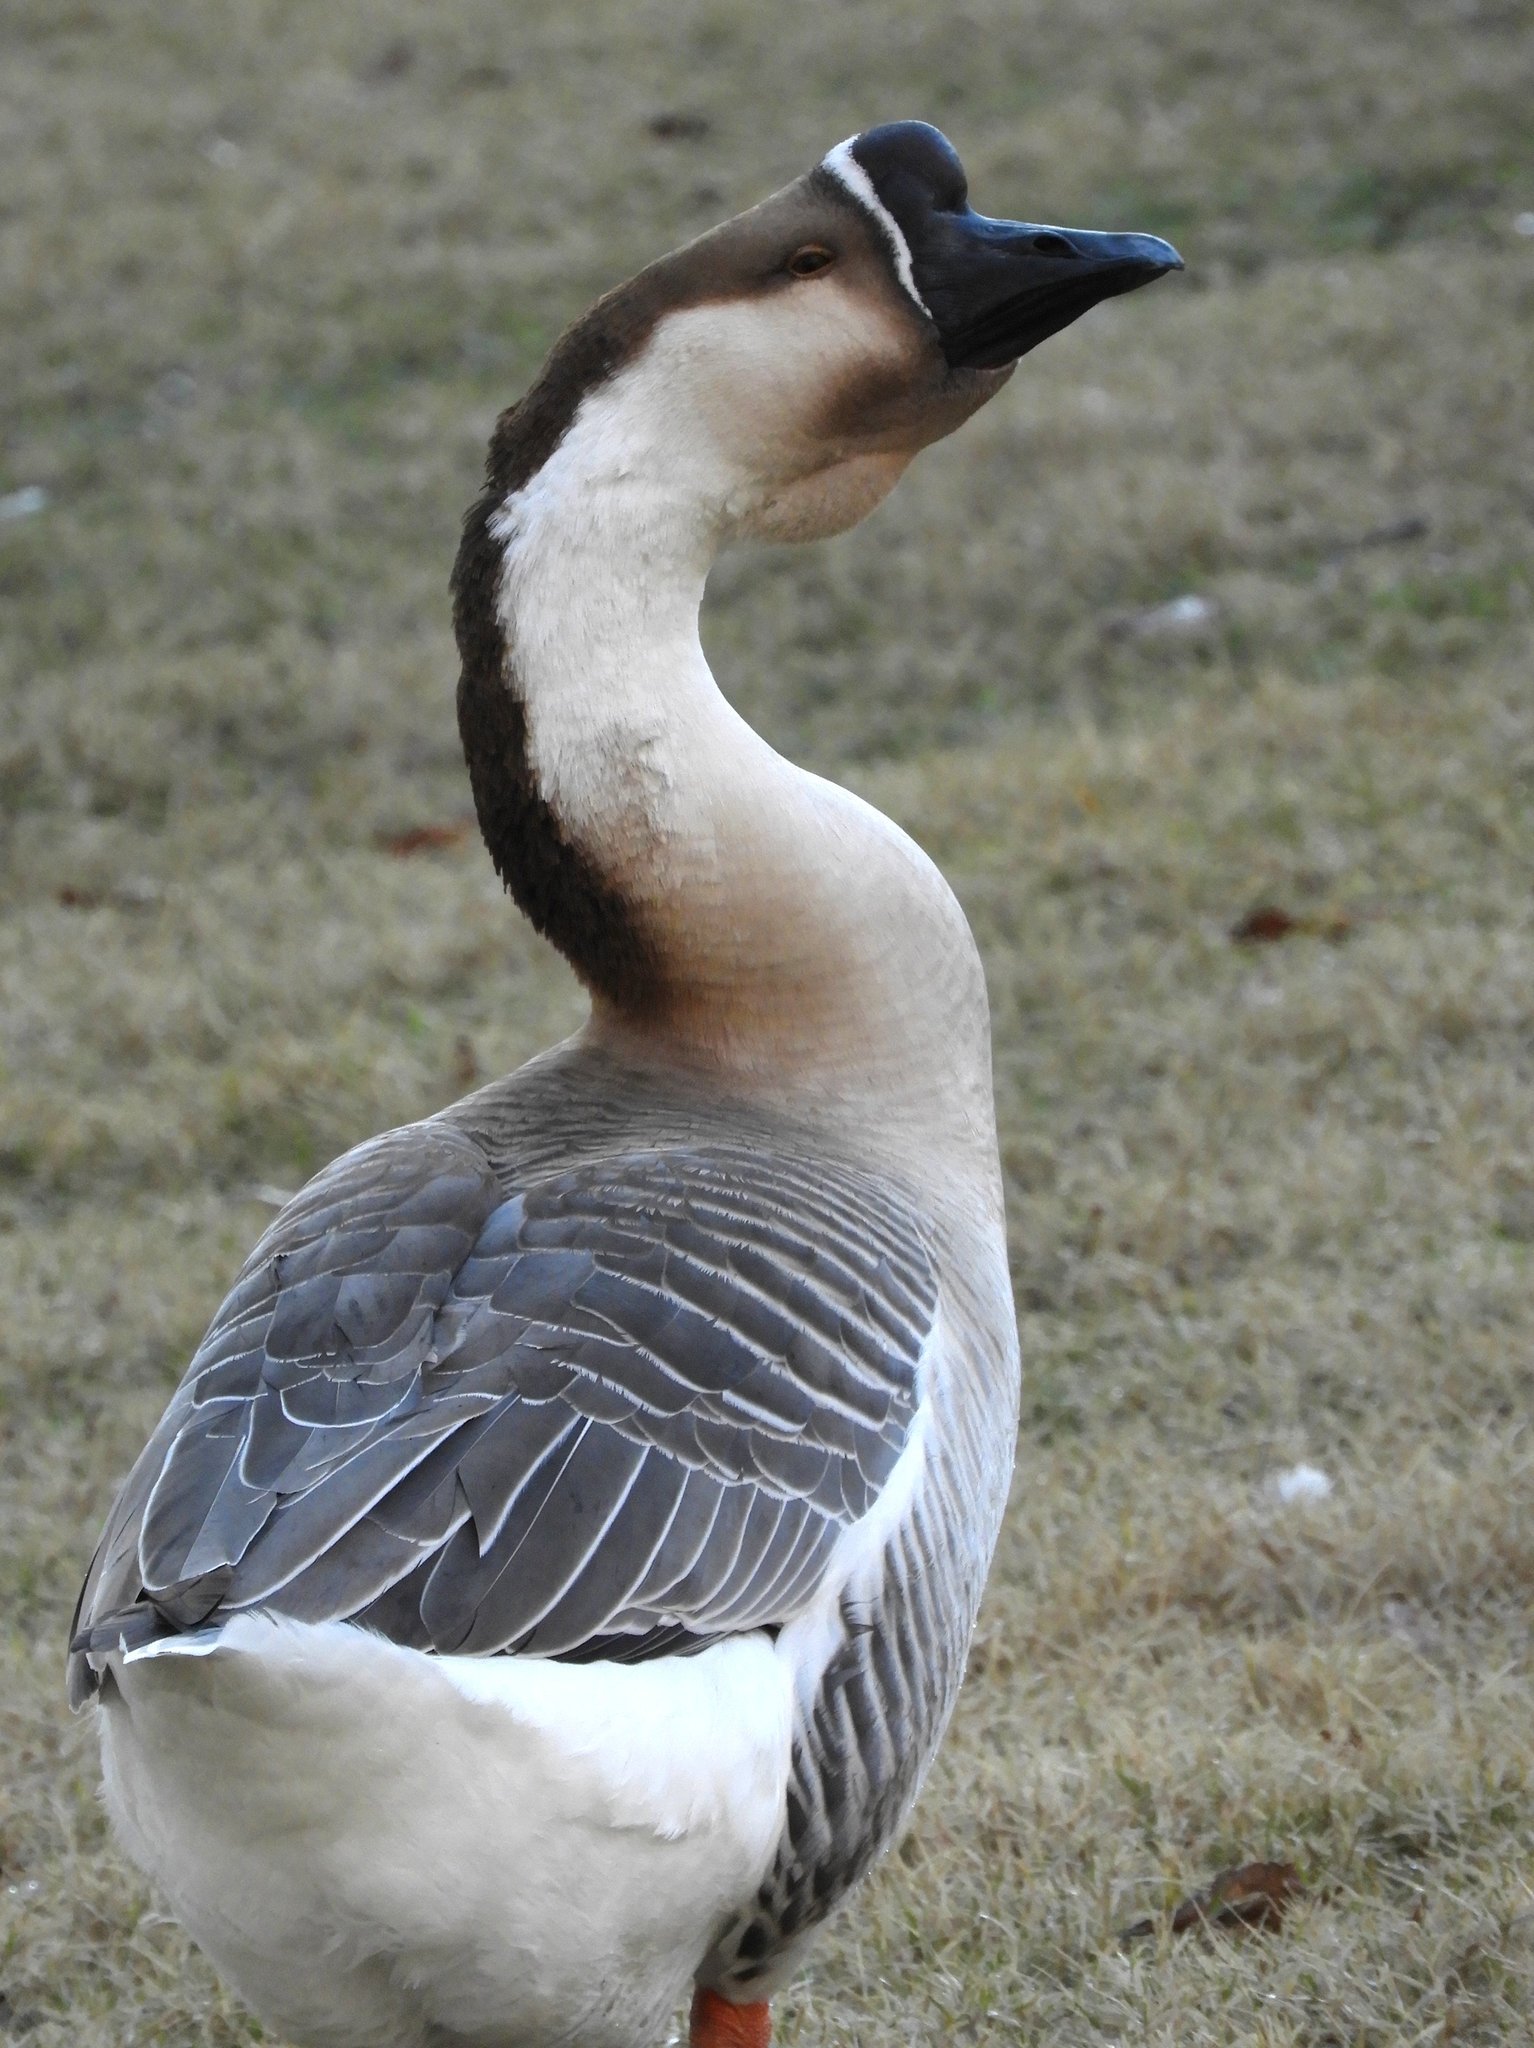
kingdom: Animalia
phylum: Chordata
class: Aves
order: Anseriformes
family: Anatidae
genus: Anser
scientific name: Anser cygnoides
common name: Swan goose
